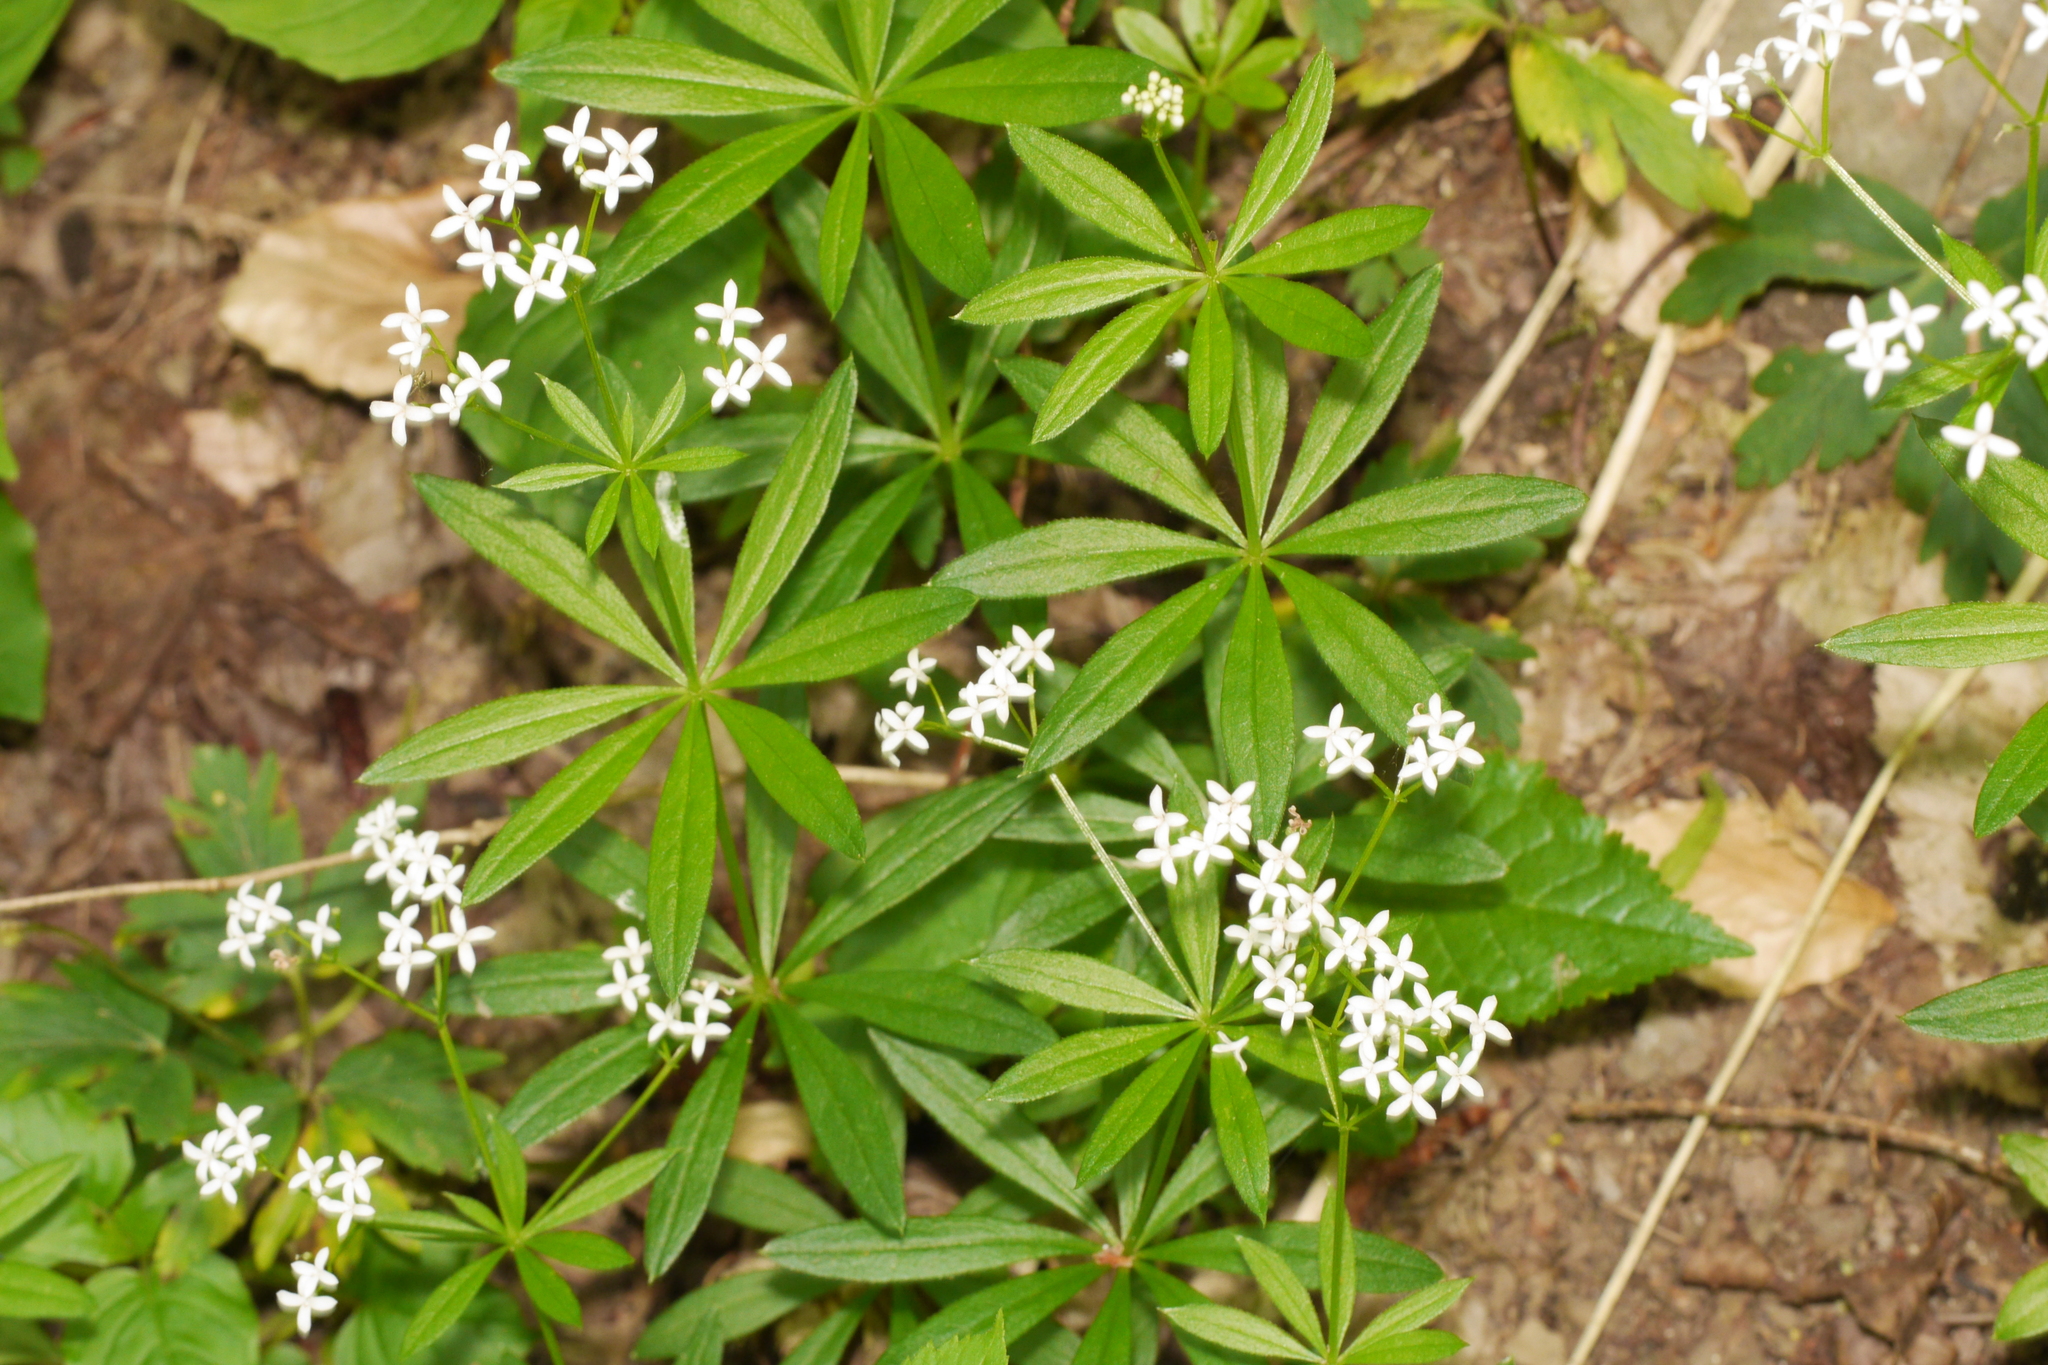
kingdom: Plantae
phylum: Tracheophyta
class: Magnoliopsida
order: Gentianales
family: Rubiaceae
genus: Galium
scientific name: Galium odoratum
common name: Sweet woodruff
